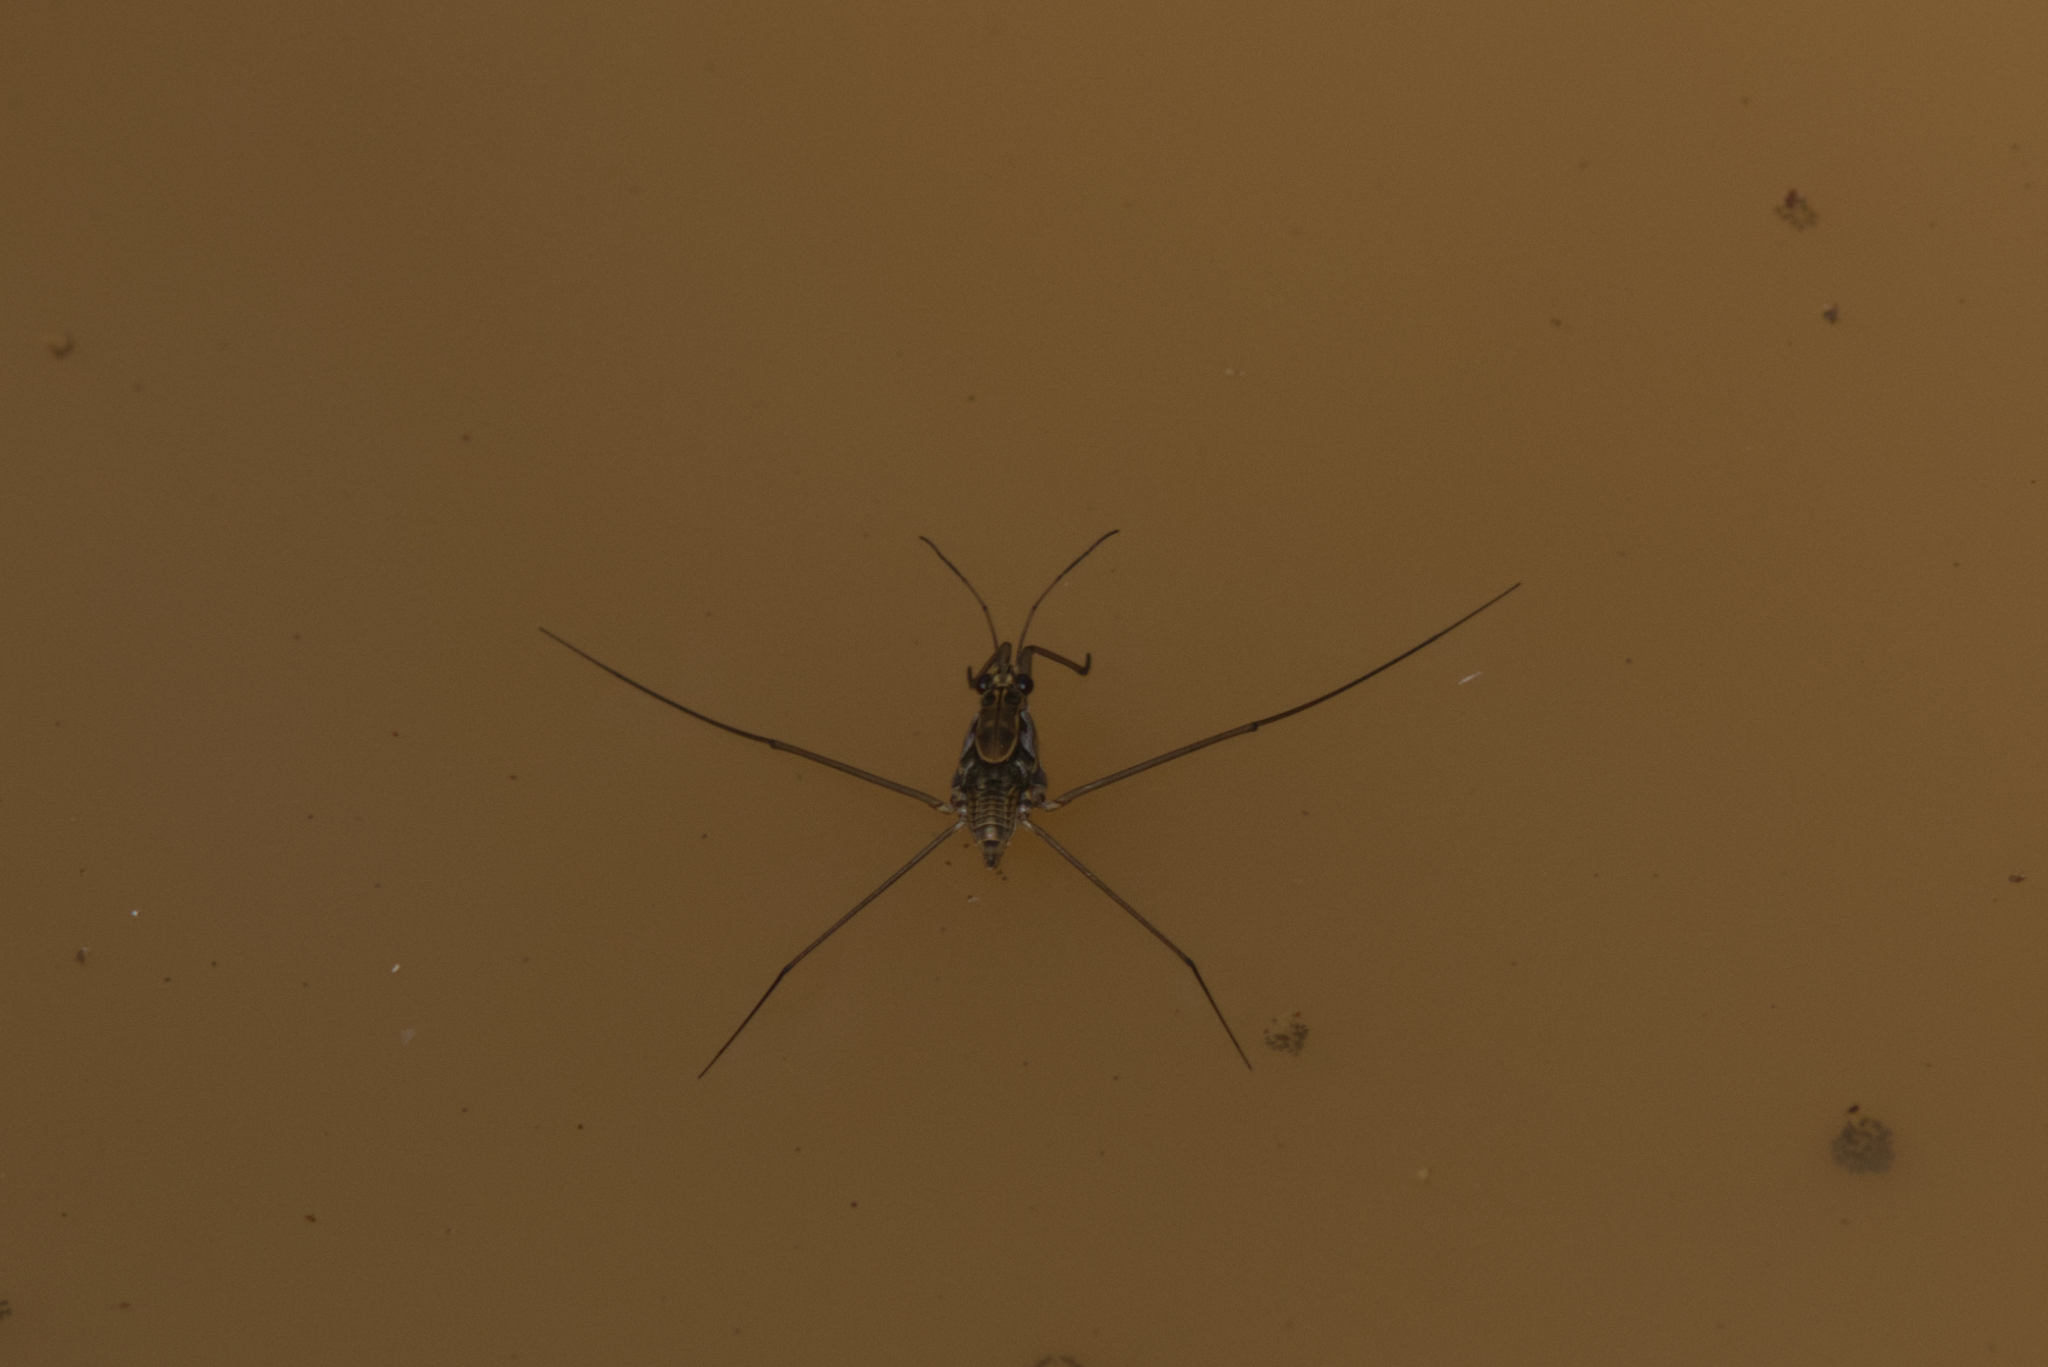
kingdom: Animalia
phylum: Arthropoda
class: Insecta
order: Hemiptera
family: Gerridae
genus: Tenagogerris
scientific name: Tenagogerris euphrosyne
